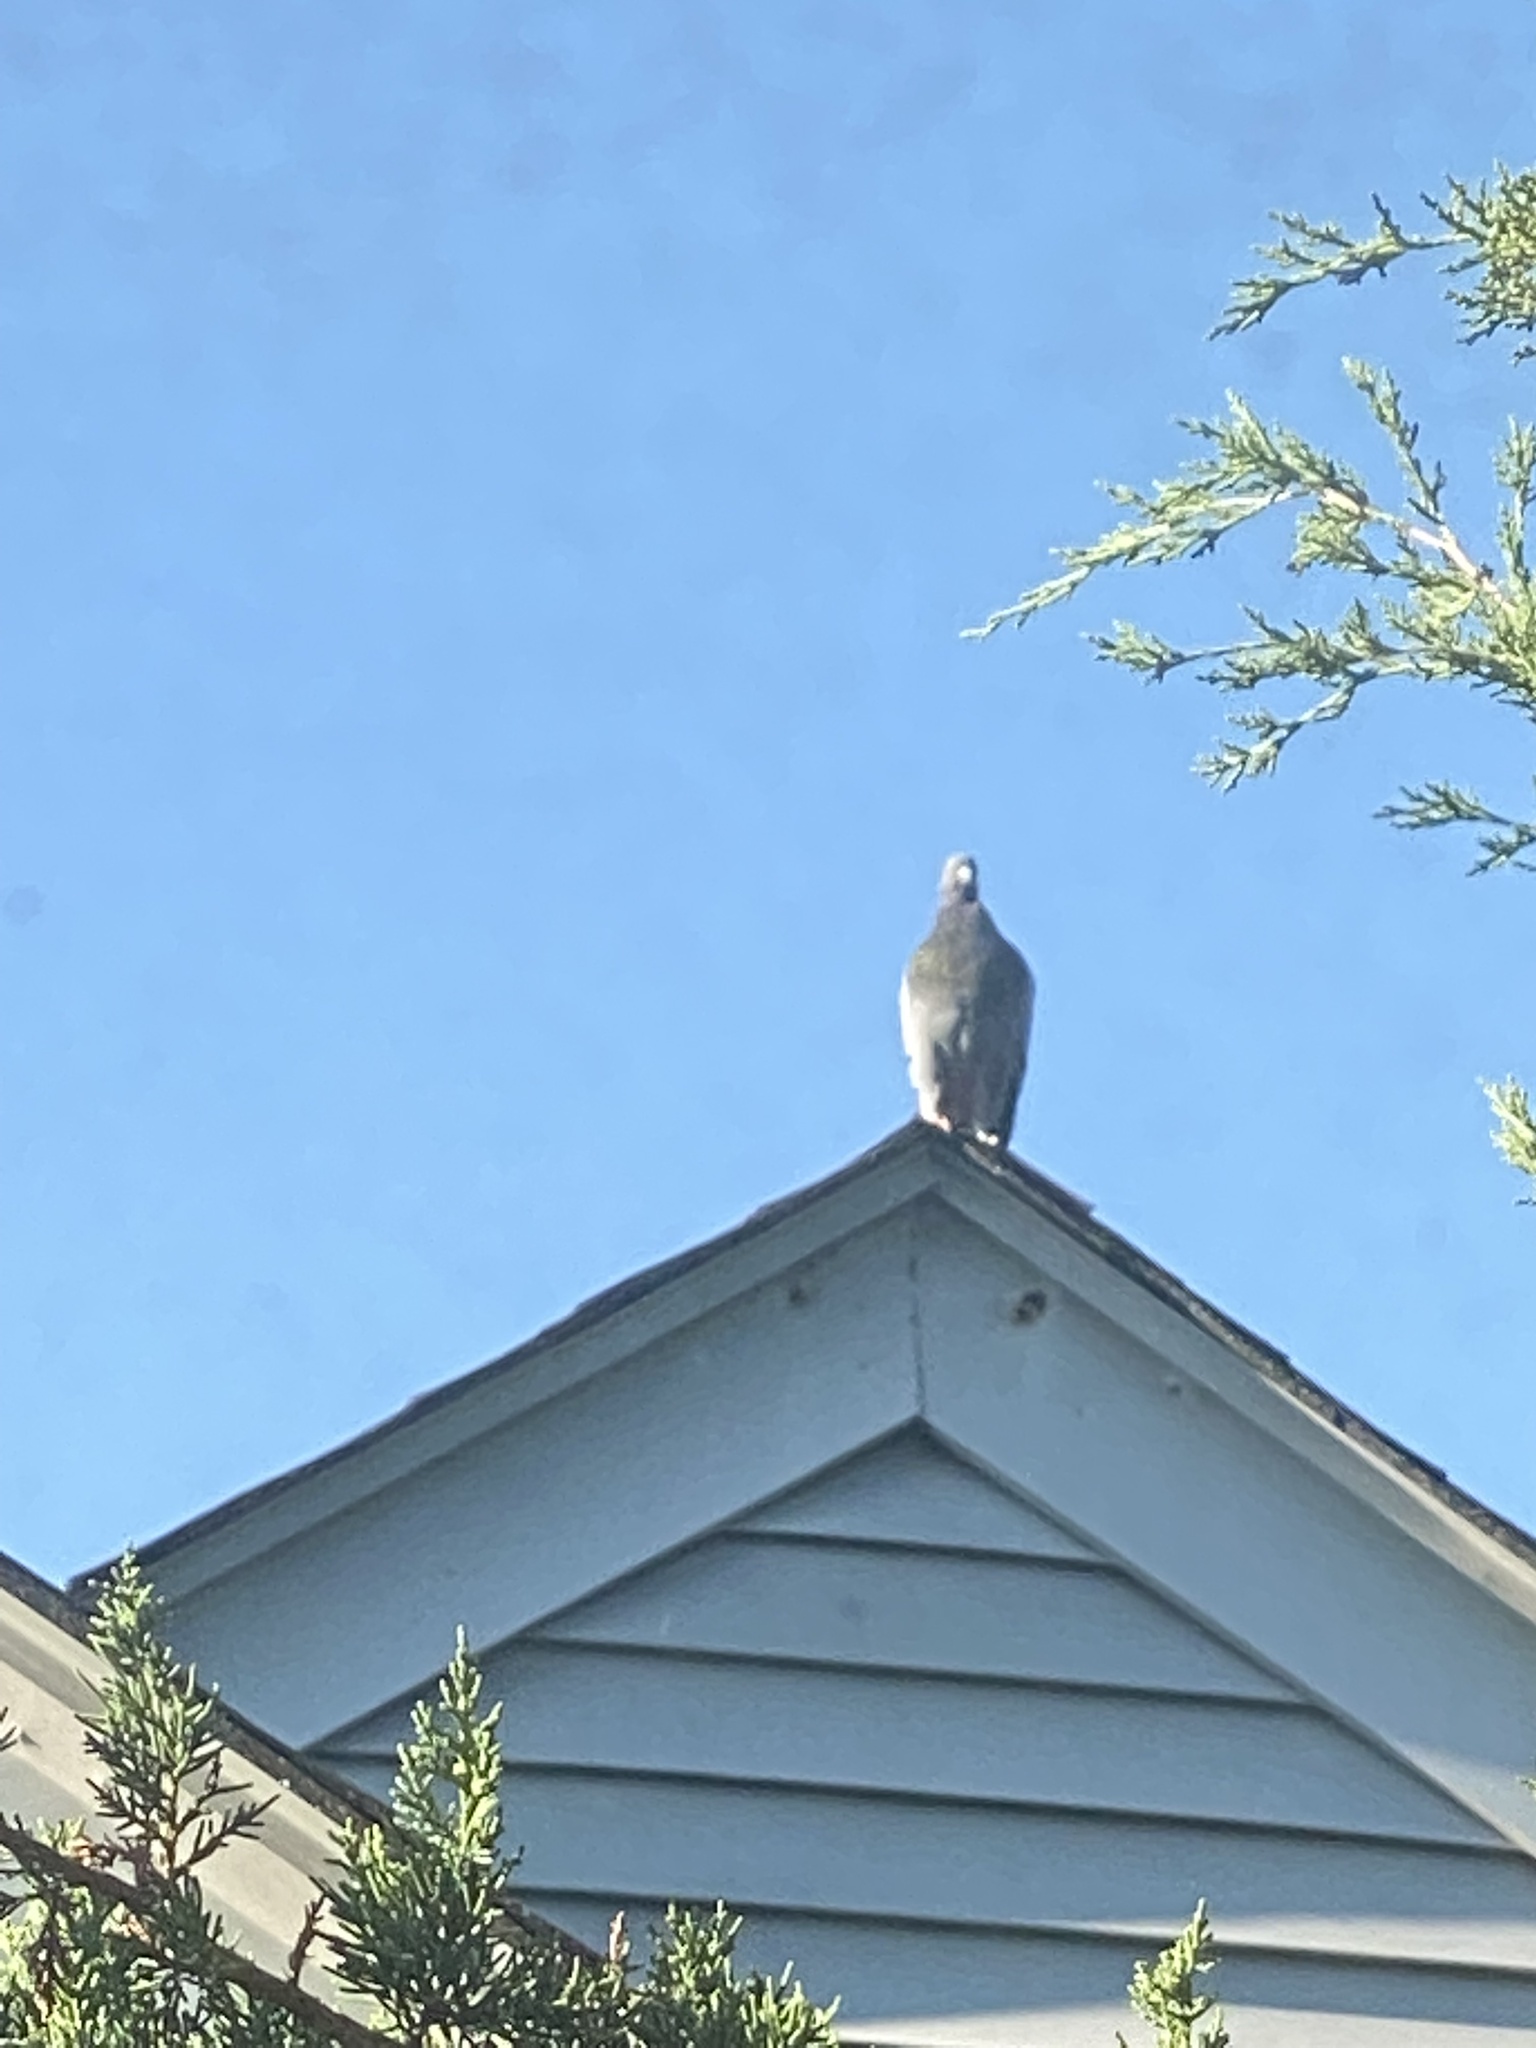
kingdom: Animalia
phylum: Chordata
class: Aves
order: Columbiformes
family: Columbidae
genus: Columba
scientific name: Columba livia
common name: Rock pigeon
